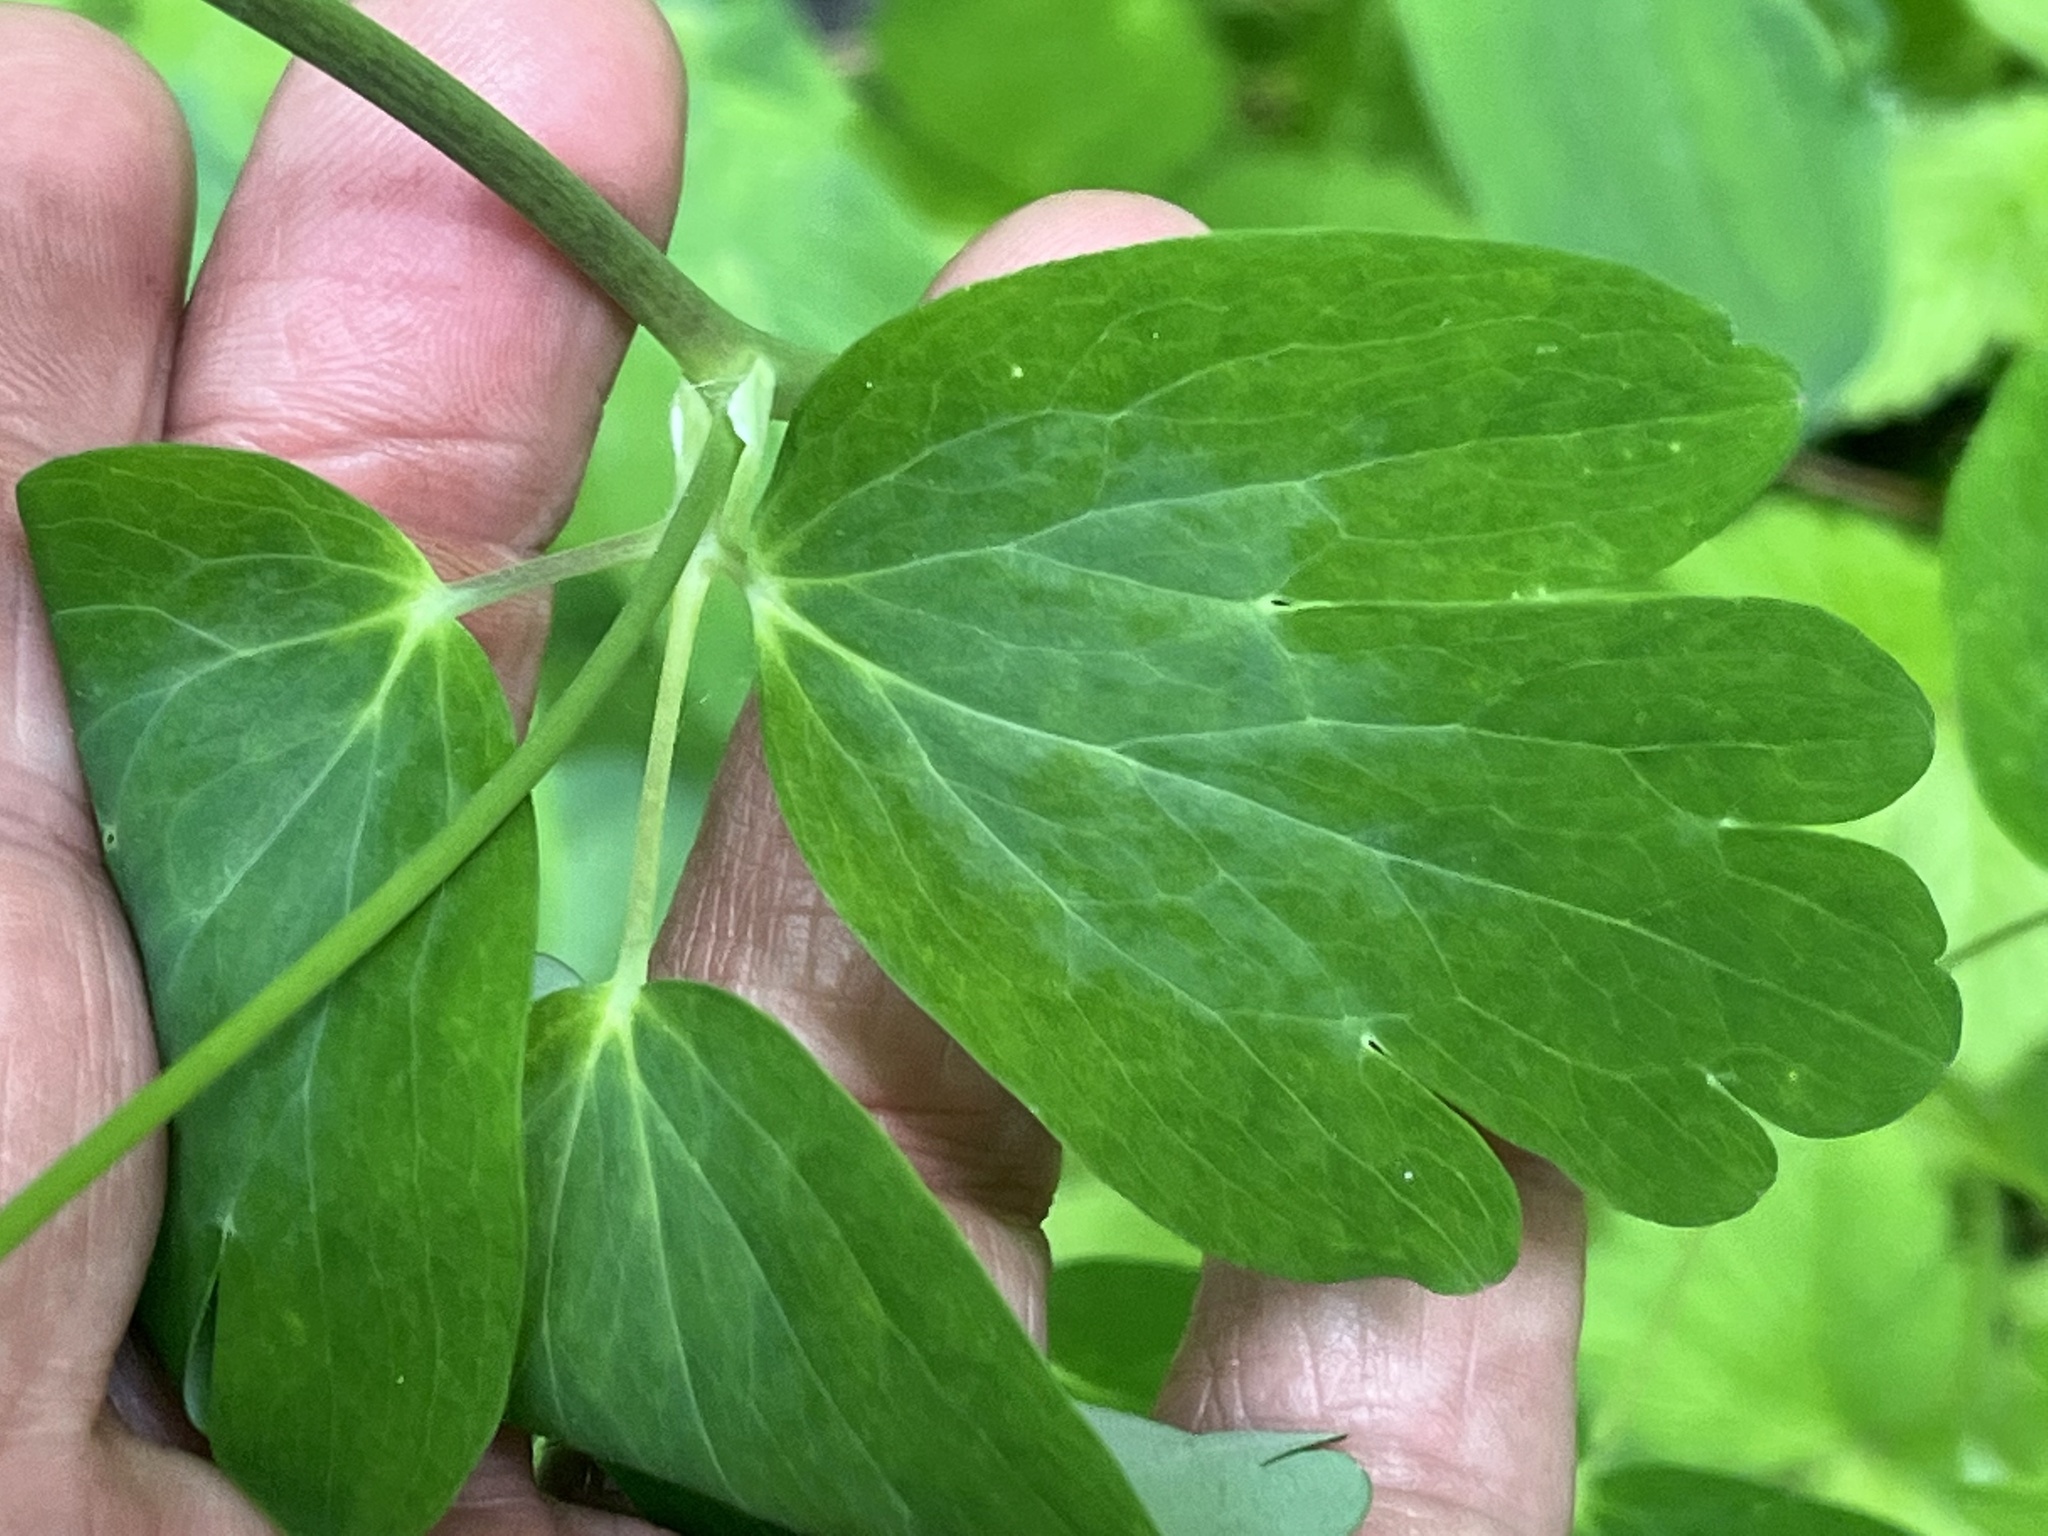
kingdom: Plantae
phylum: Tracheophyta
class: Magnoliopsida
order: Ranunculales
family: Ranunculaceae
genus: Aquilegia
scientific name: Aquilegia canadensis
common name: American columbine
